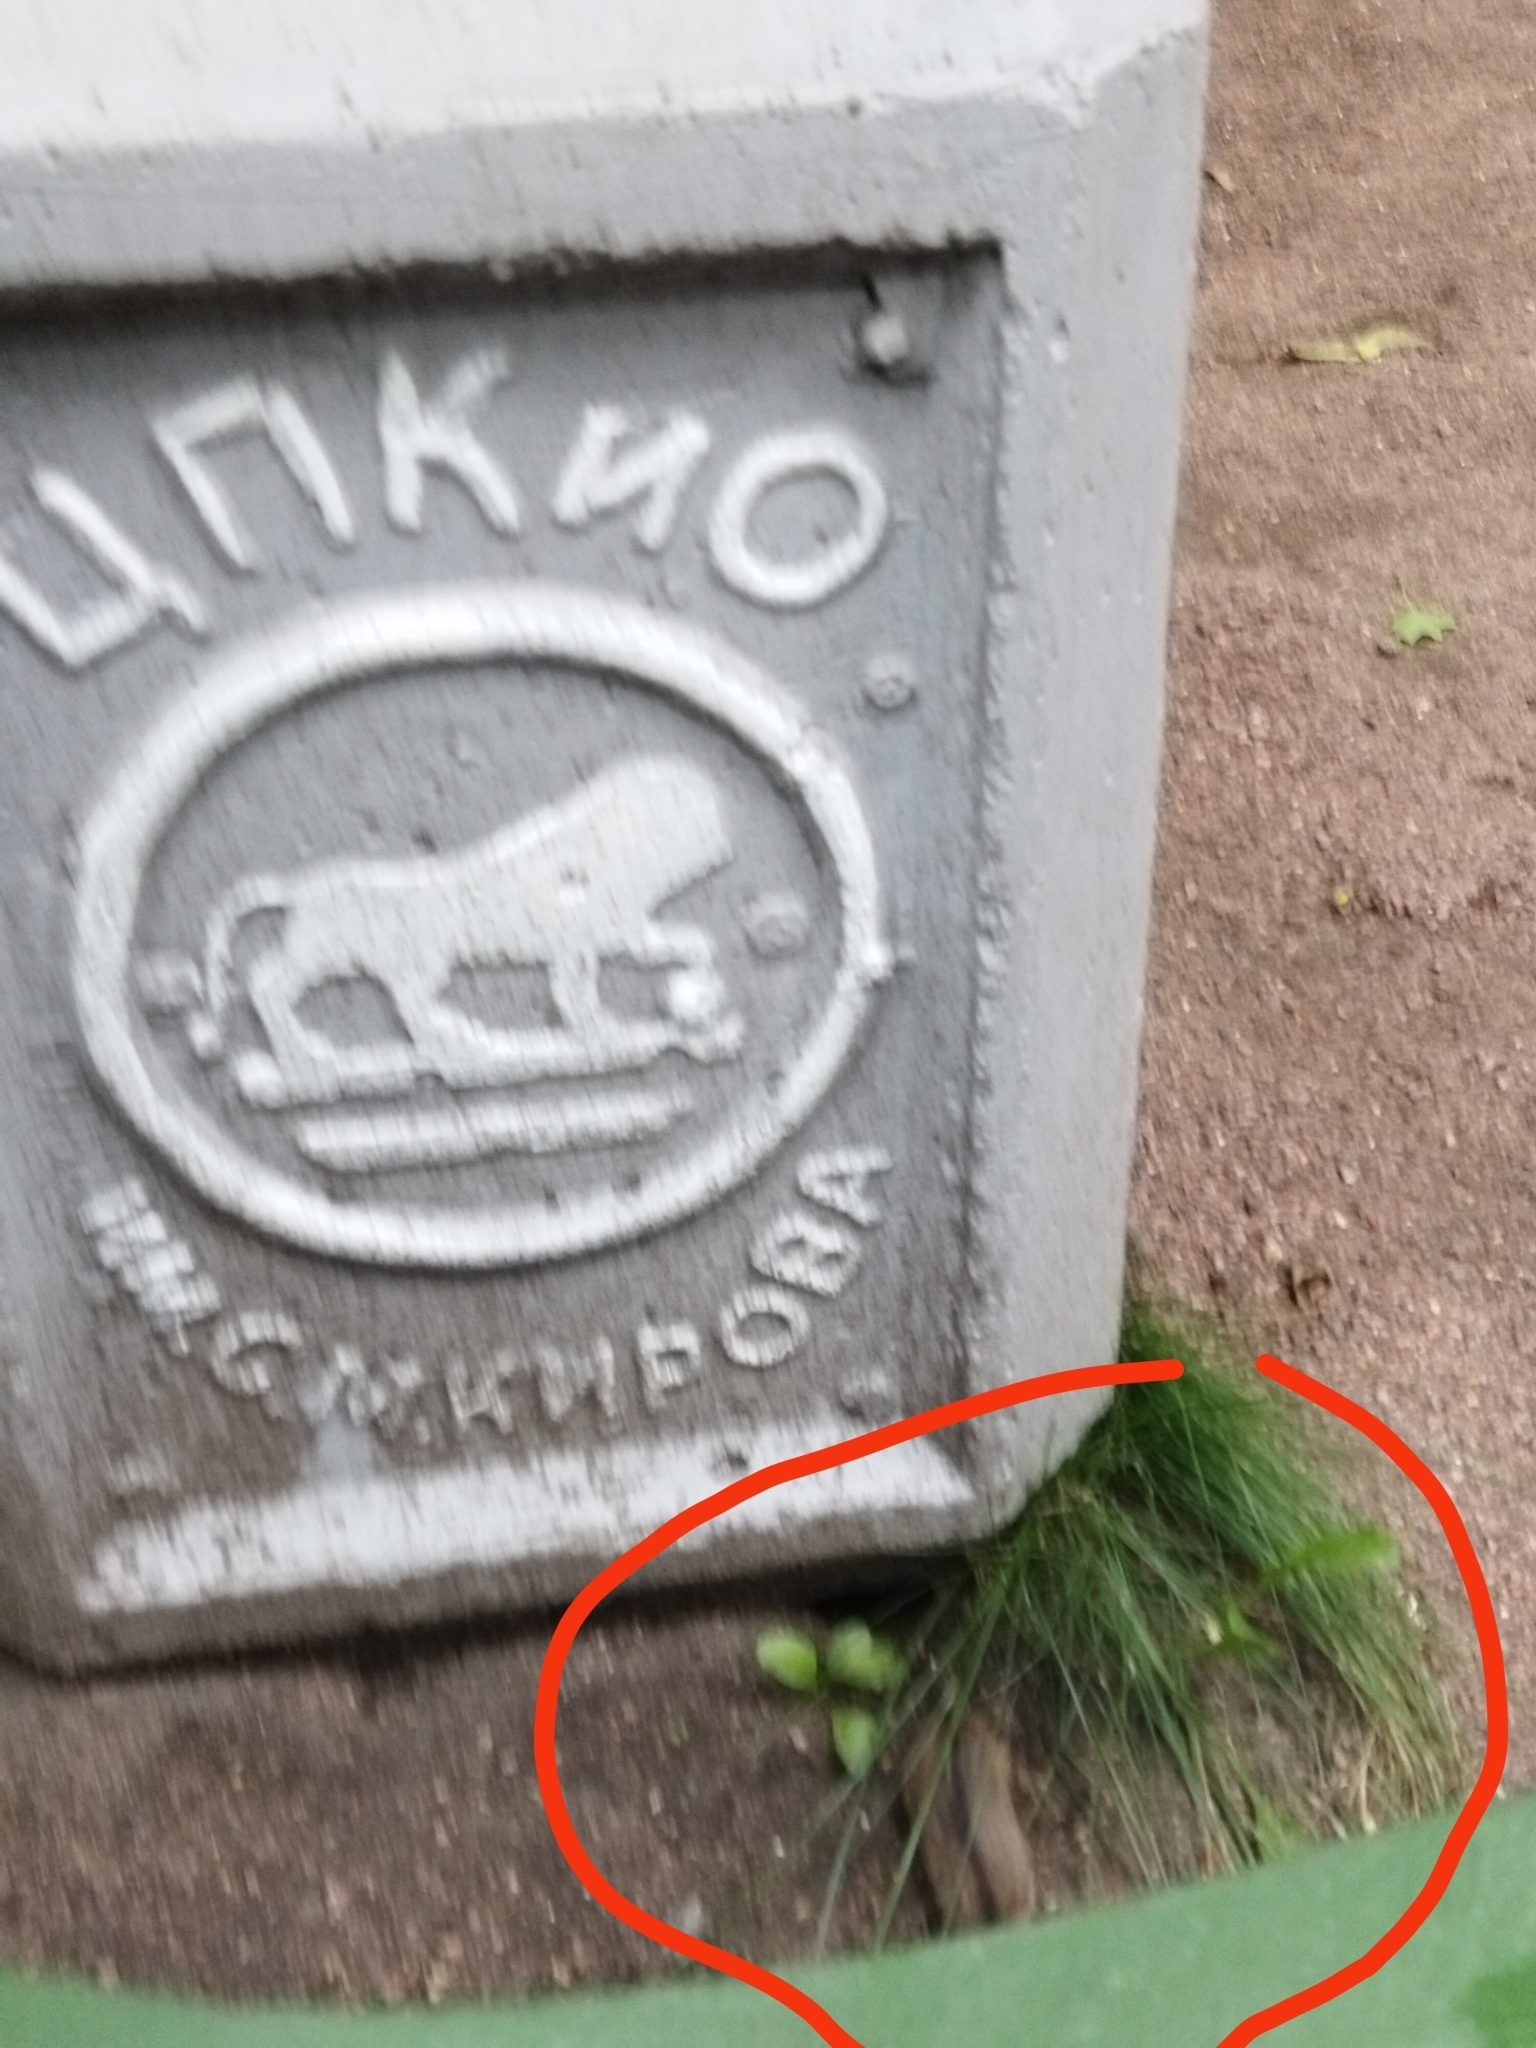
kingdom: Animalia
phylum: Chordata
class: Mammalia
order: Rodentia
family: Muridae
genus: Apodemus
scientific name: Apodemus agrarius
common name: Striped field mouse
